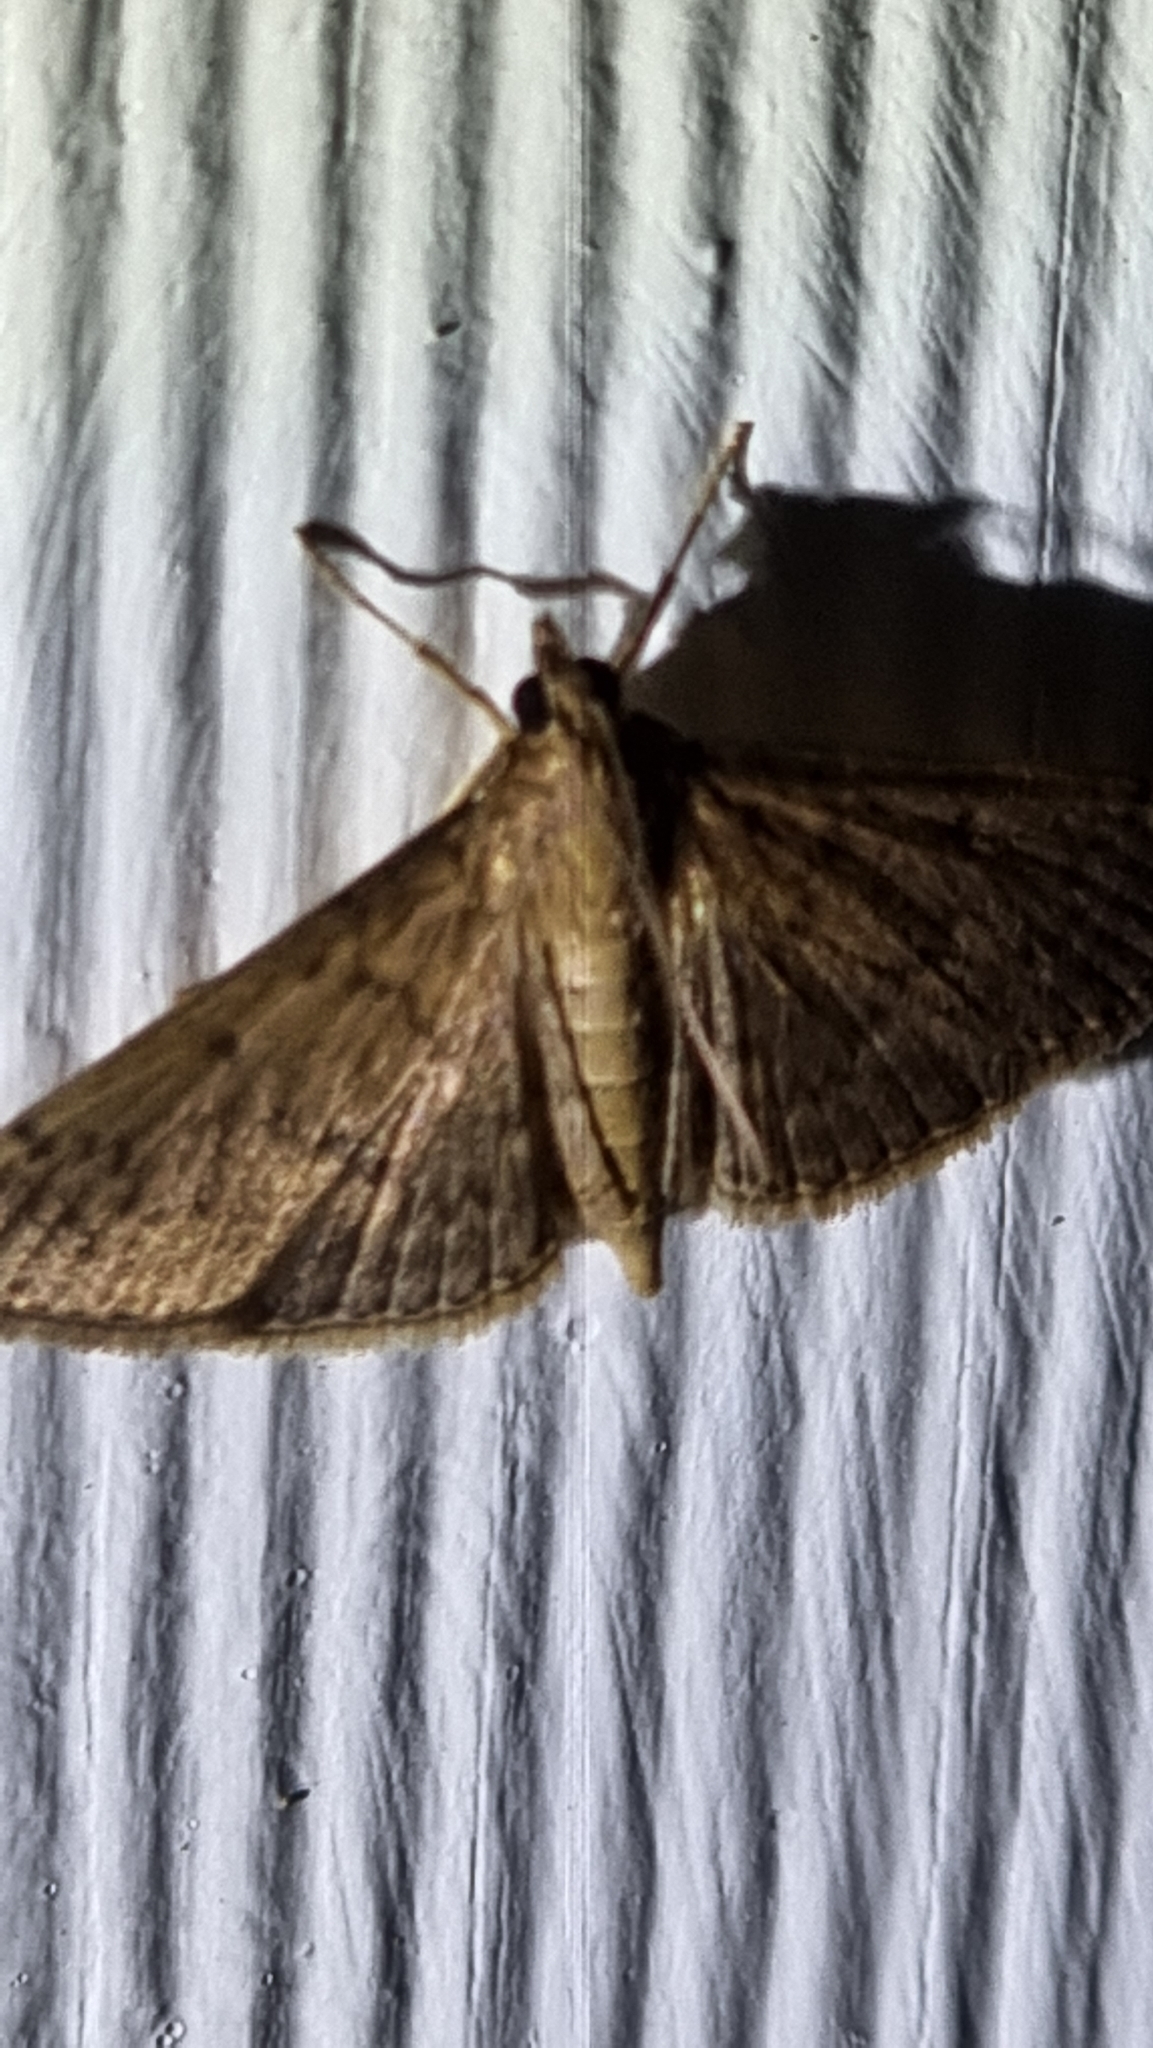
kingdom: Animalia
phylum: Arthropoda
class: Insecta
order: Lepidoptera
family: Crambidae
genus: Herpetogramma
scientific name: Herpetogramma licarsisalis
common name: Grass webworm
